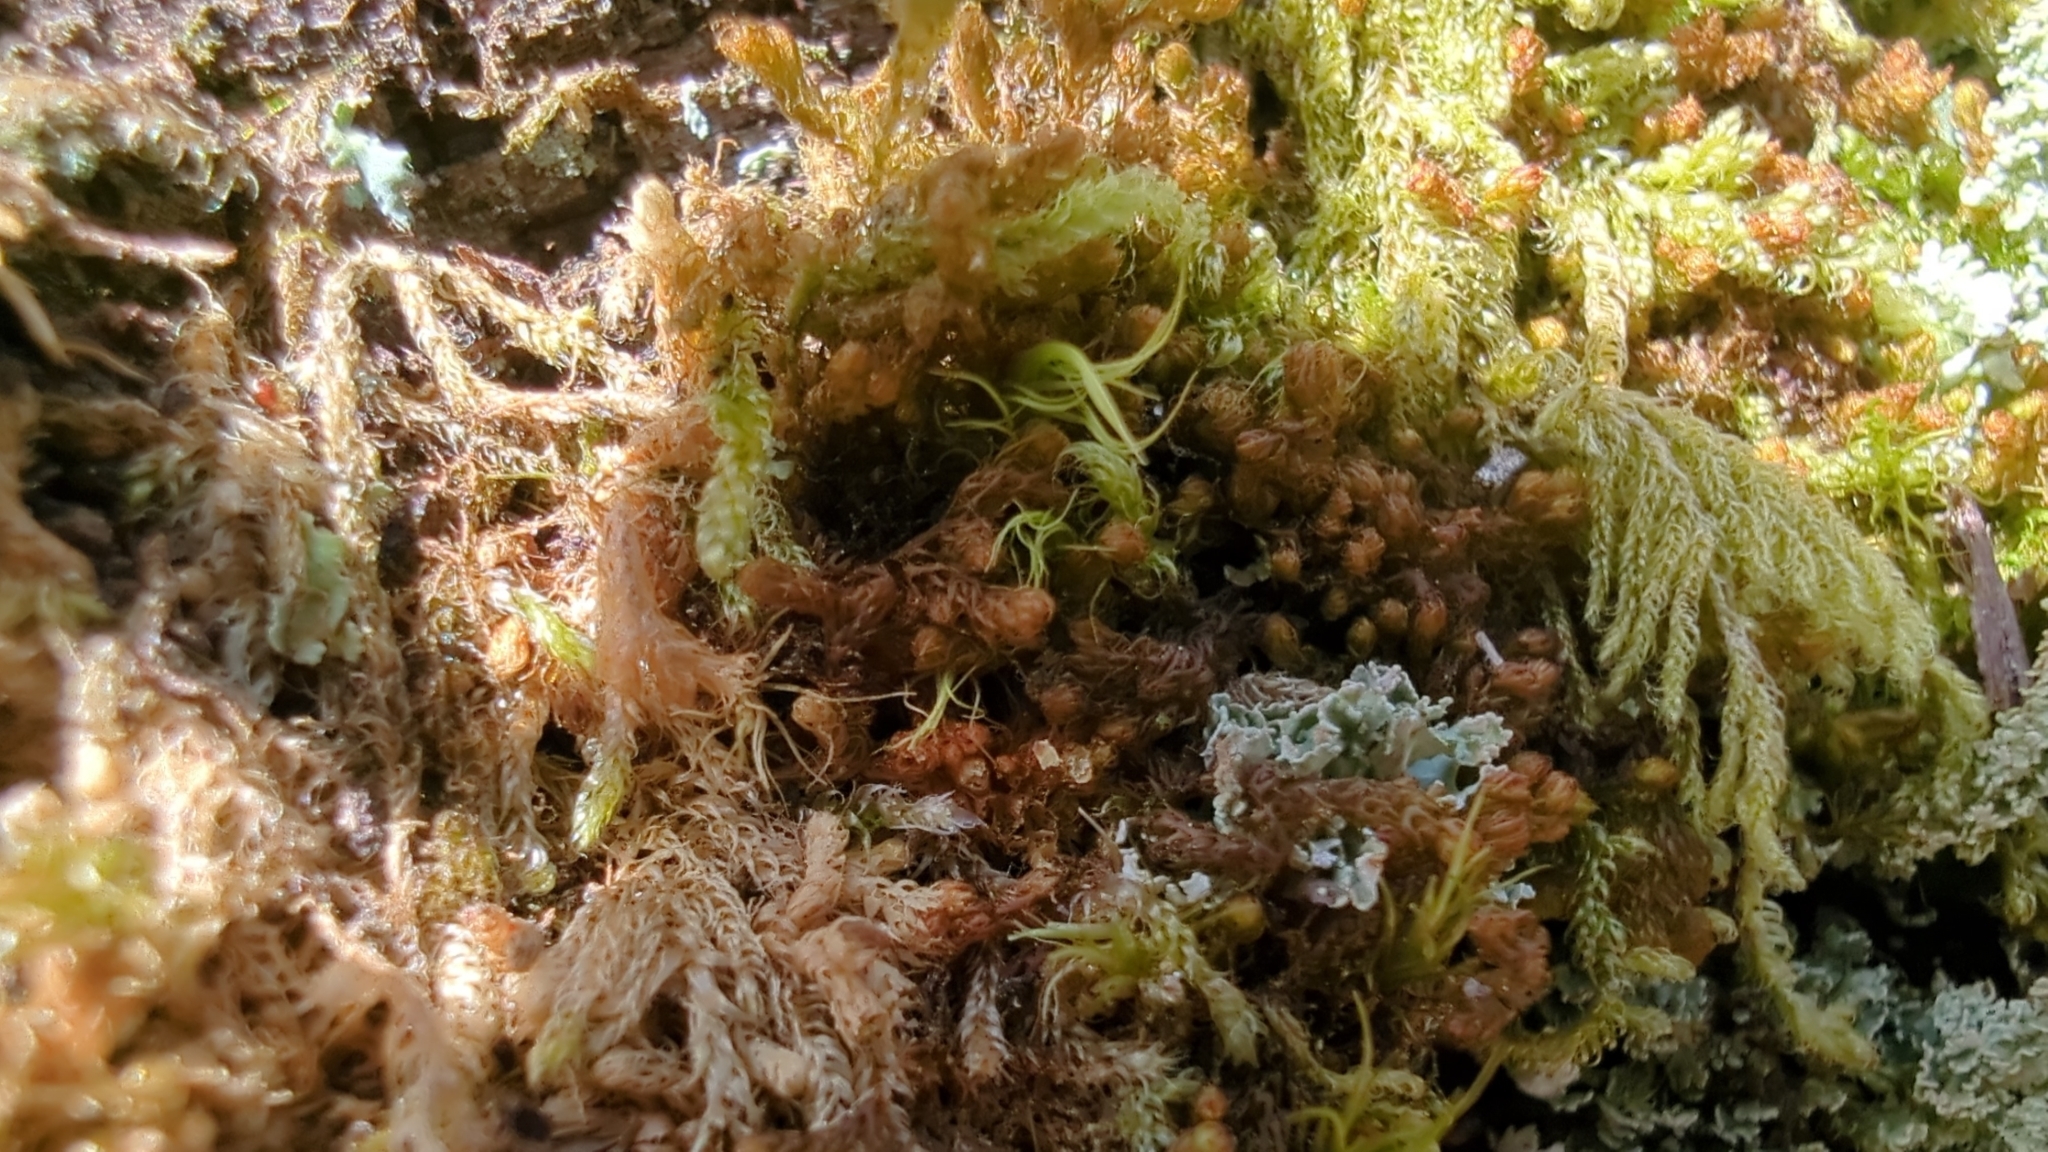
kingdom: Plantae
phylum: Marchantiophyta
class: Jungermanniopsida
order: Ptilidiales
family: Ptilidiaceae
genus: Ptilidium
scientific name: Ptilidium californicum
